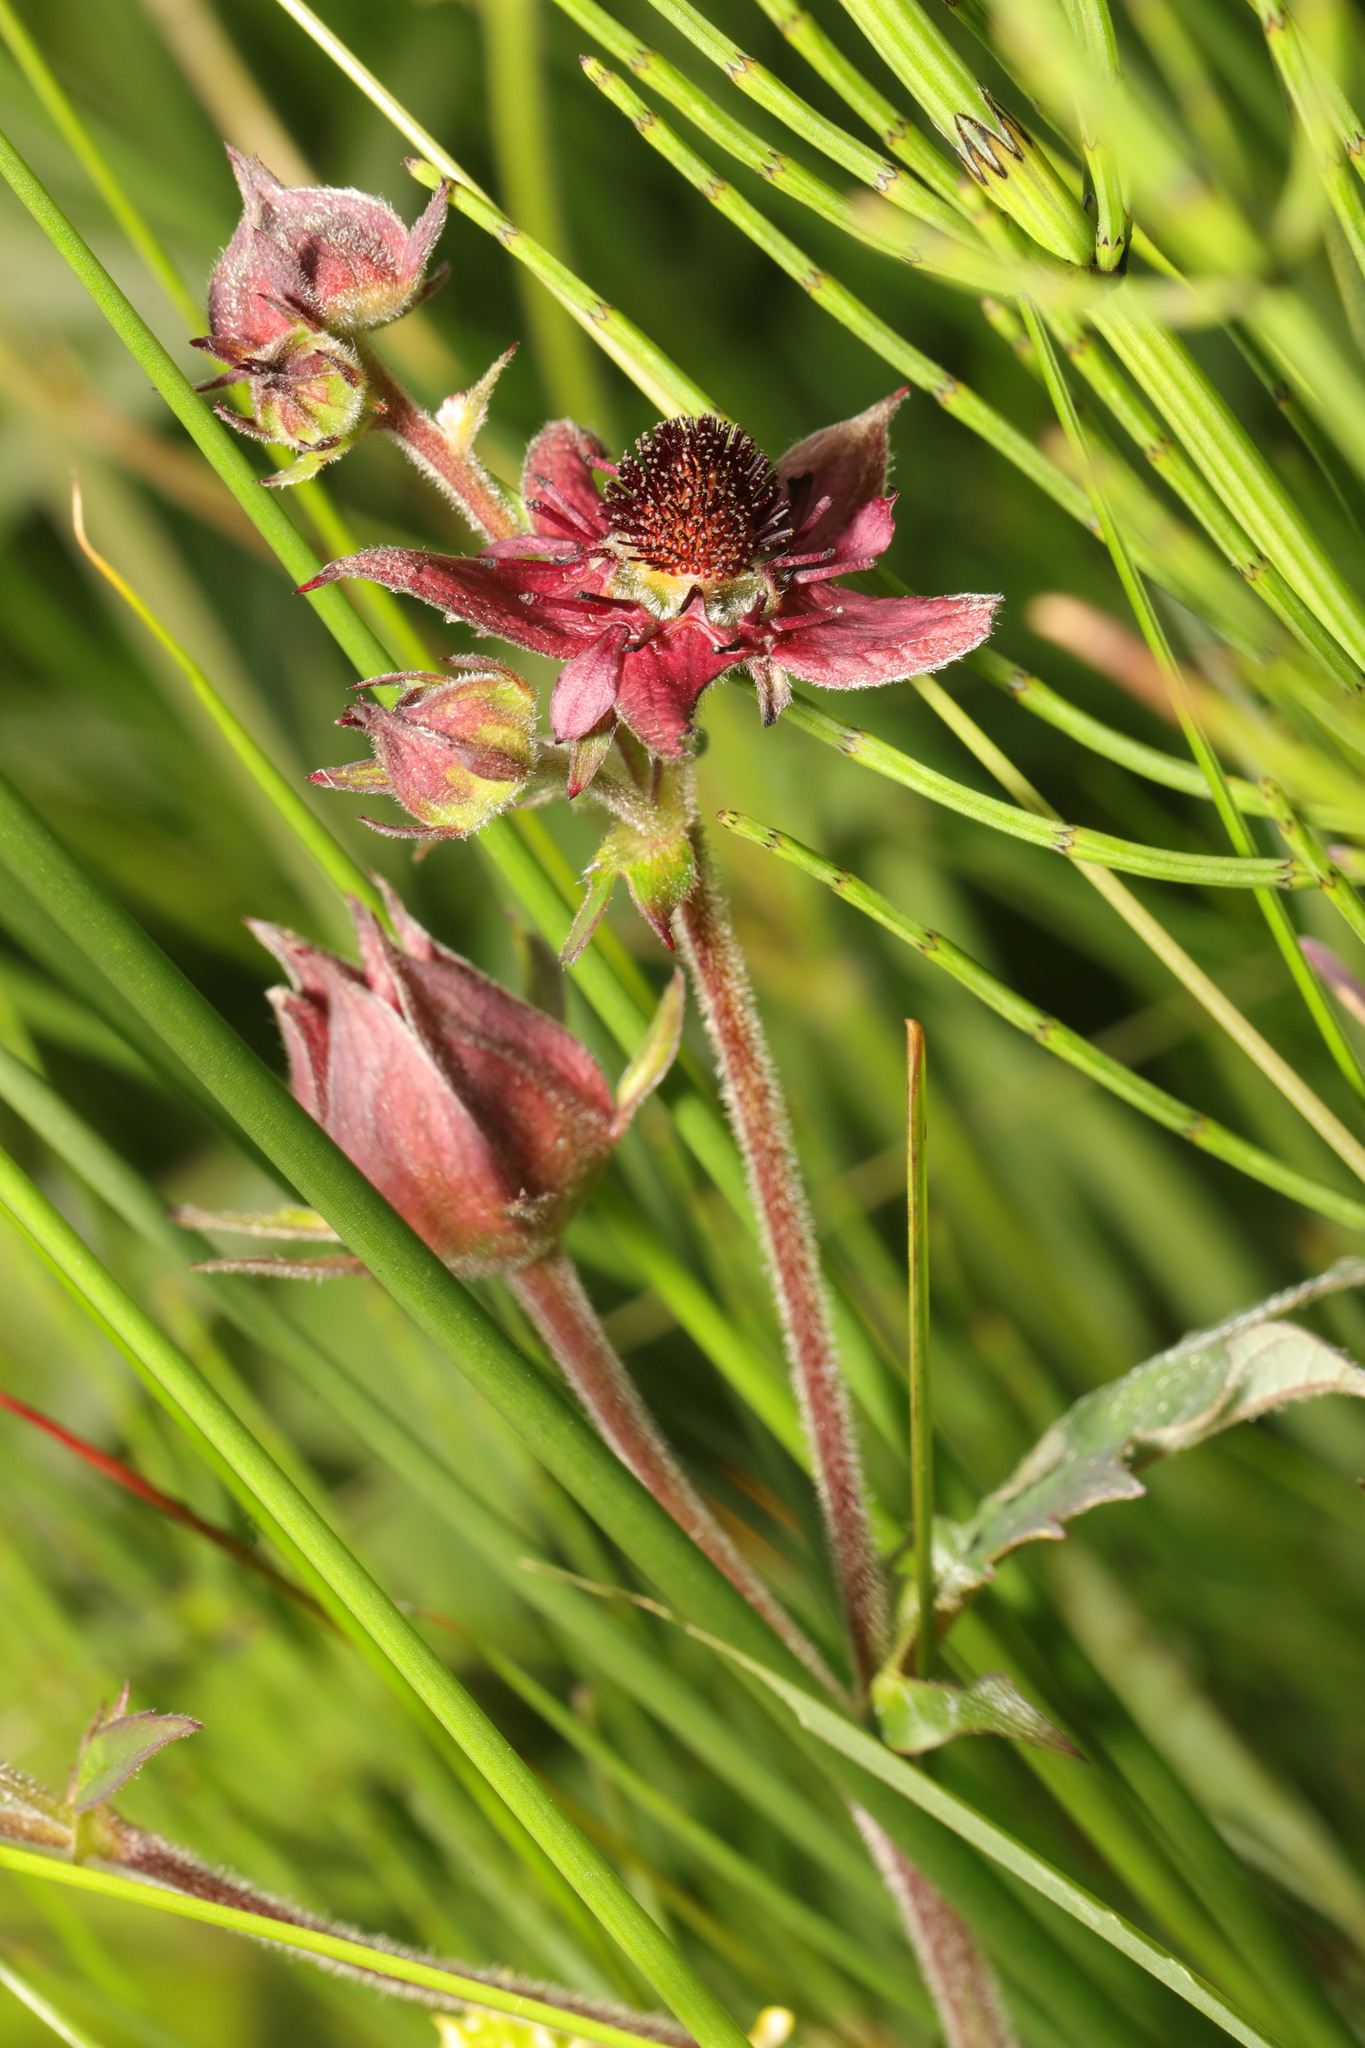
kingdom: Plantae
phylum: Tracheophyta
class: Magnoliopsida
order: Rosales
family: Rosaceae
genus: Comarum
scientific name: Comarum palustre
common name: Marsh cinquefoil
